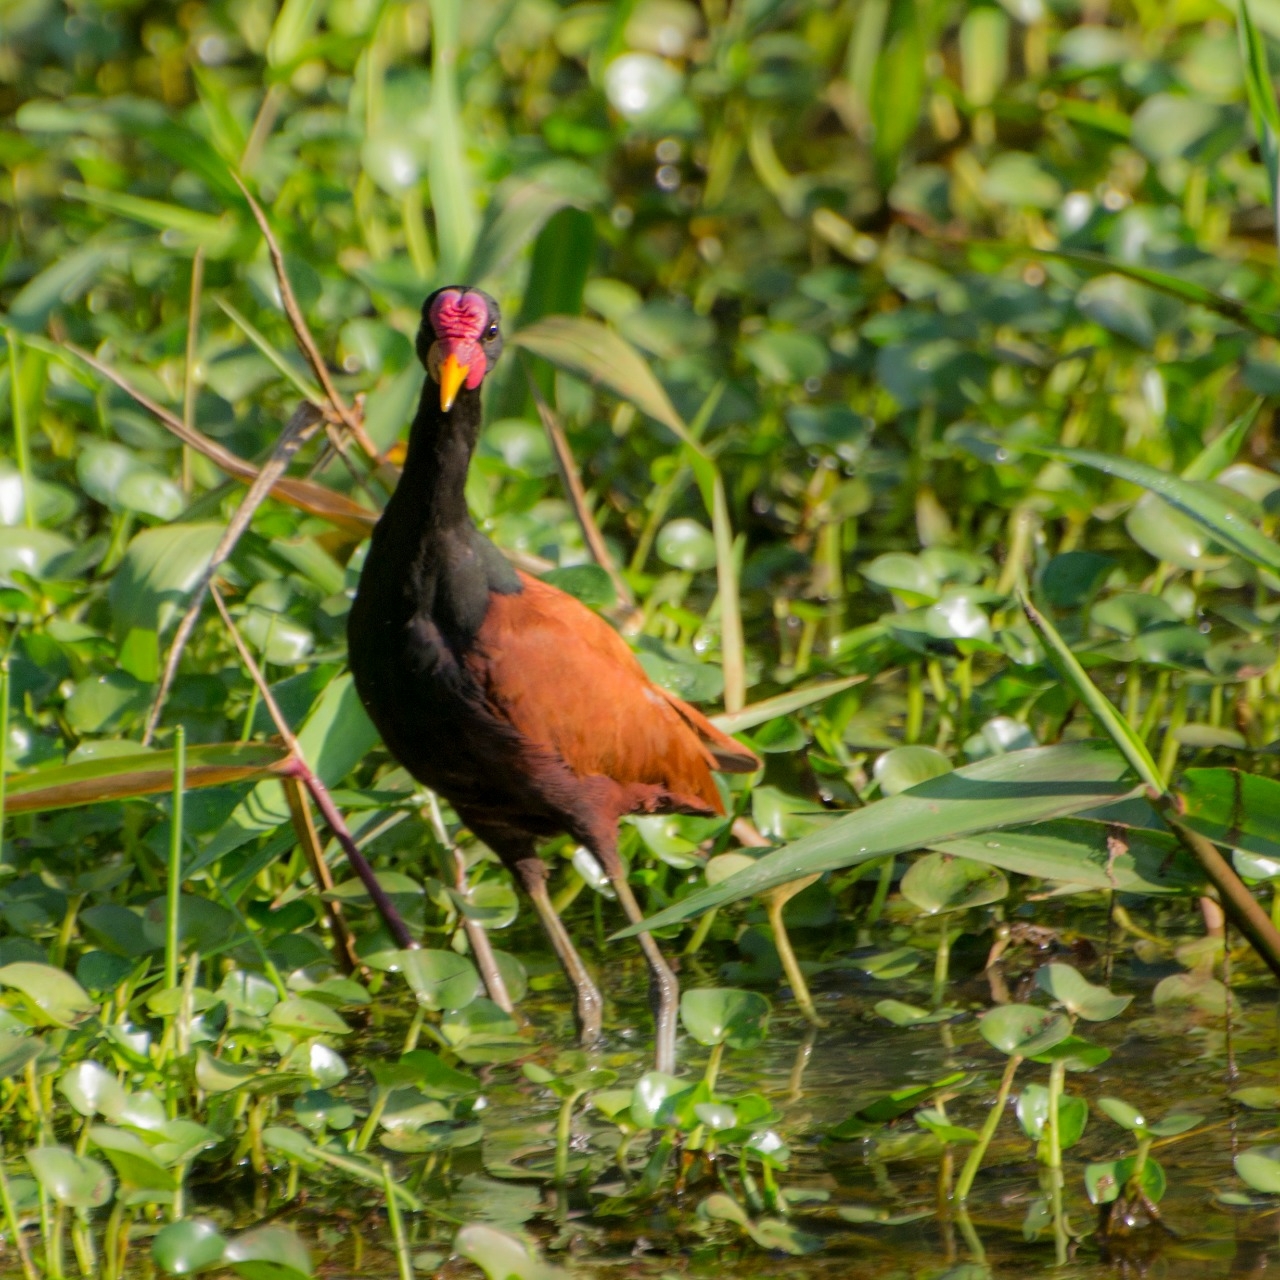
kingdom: Animalia
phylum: Chordata
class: Aves
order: Charadriiformes
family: Jacanidae
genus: Jacana
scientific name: Jacana jacana
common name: Wattled jacana
